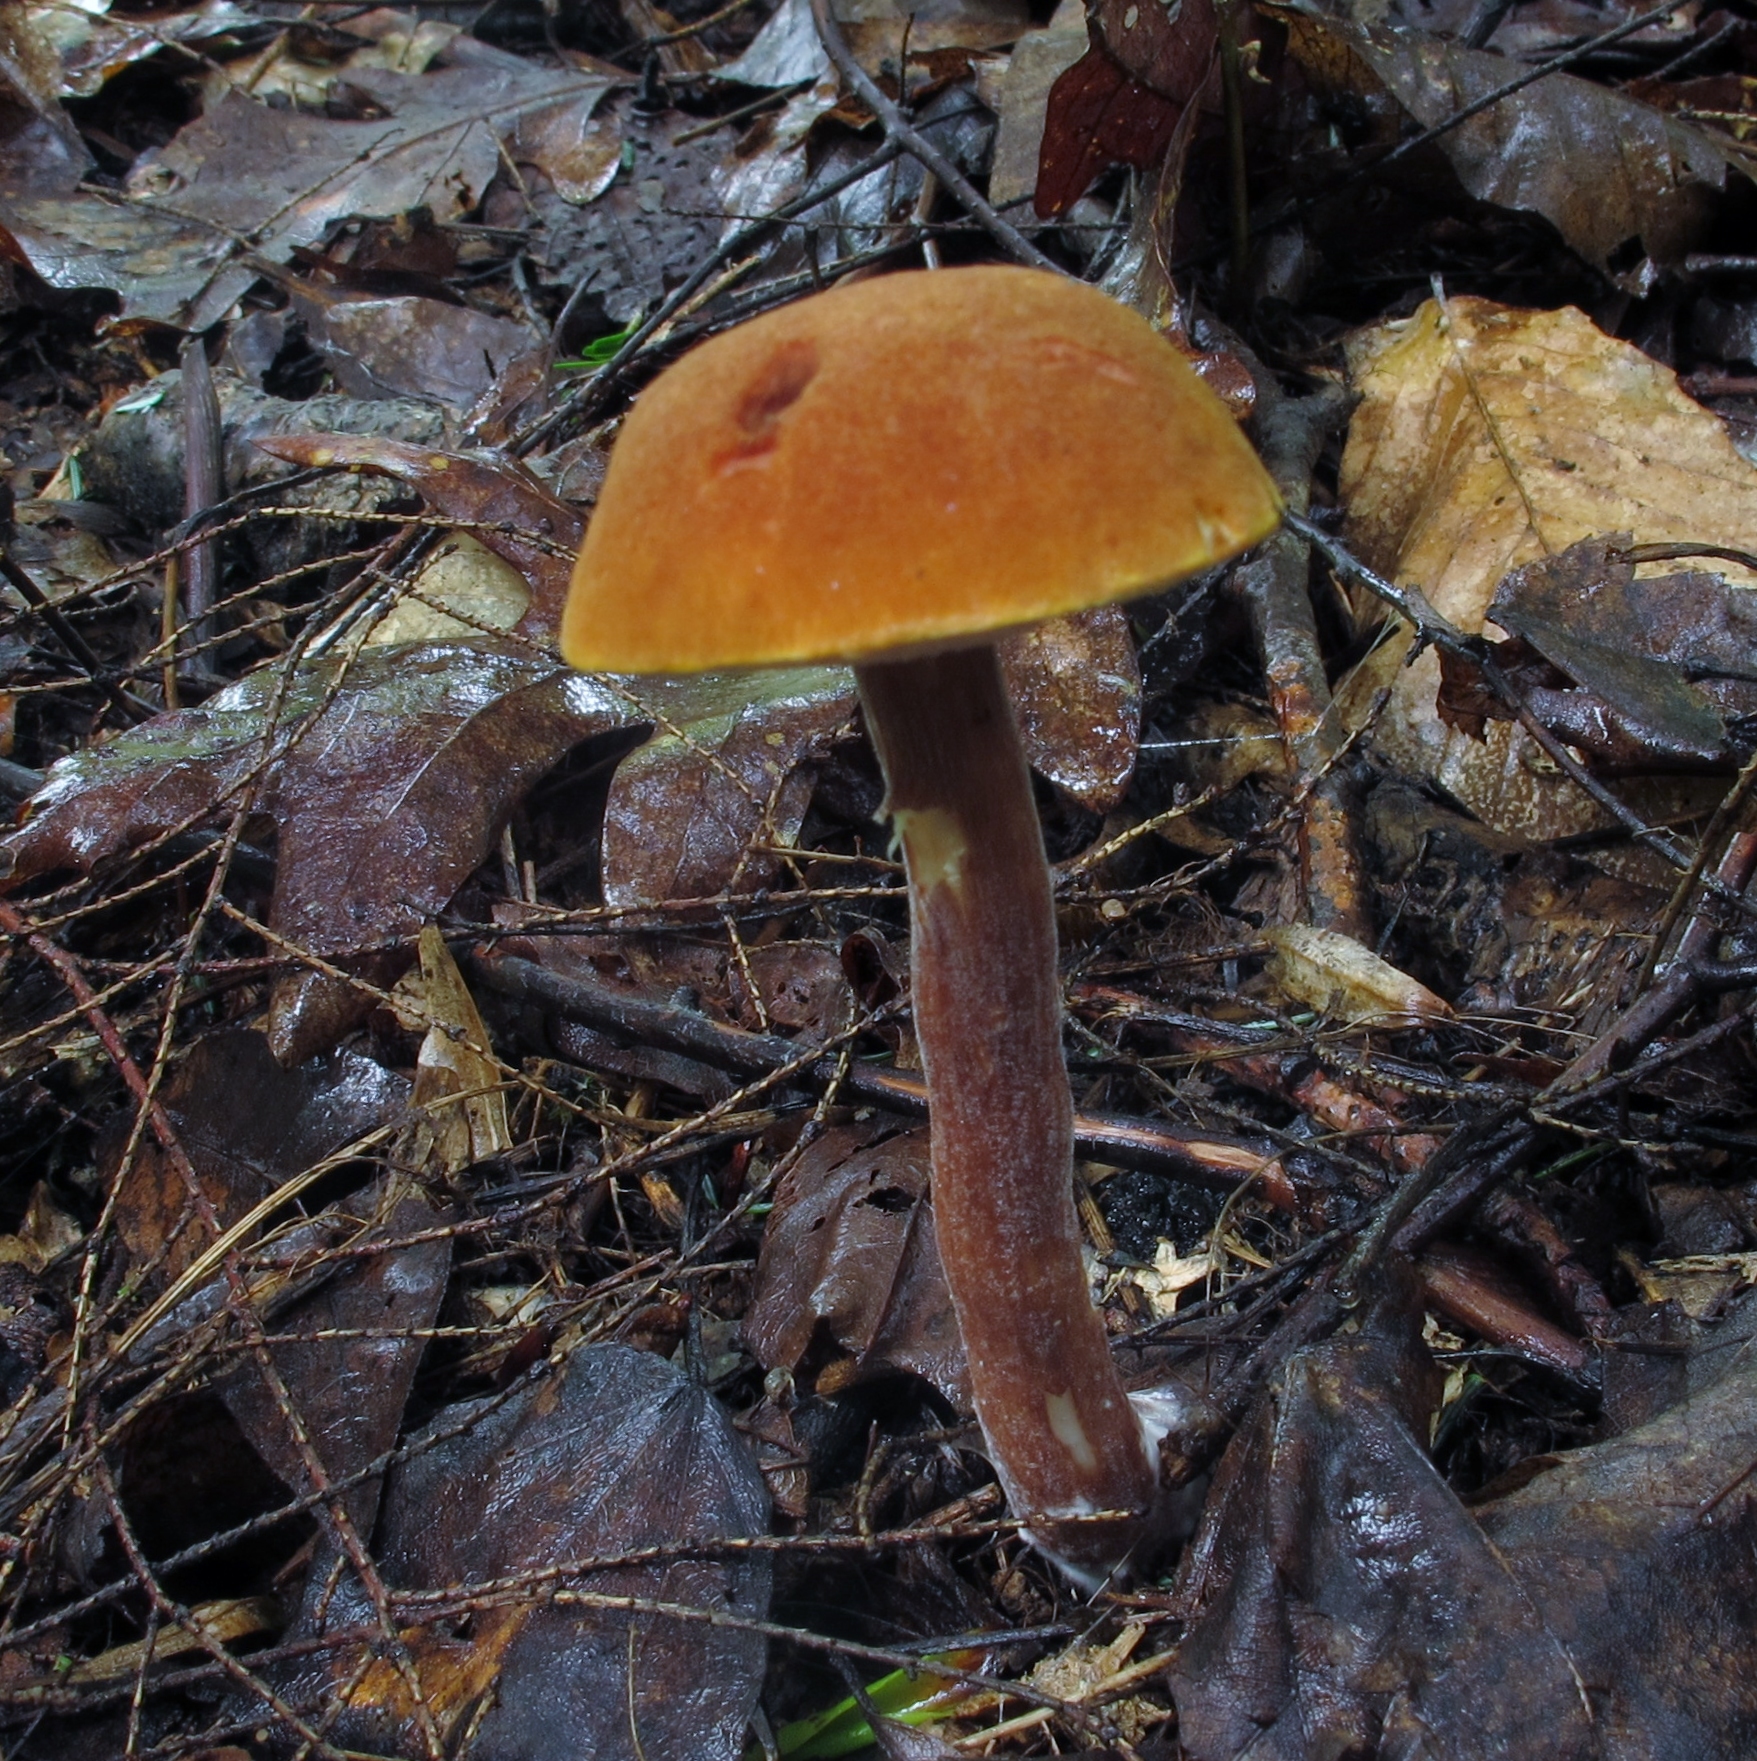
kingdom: Fungi
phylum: Basidiomycota
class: Agaricomycetes
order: Boletales
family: Boletaceae
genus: Austroboletus
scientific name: Austroboletus gracilis
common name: Graceful bolete
